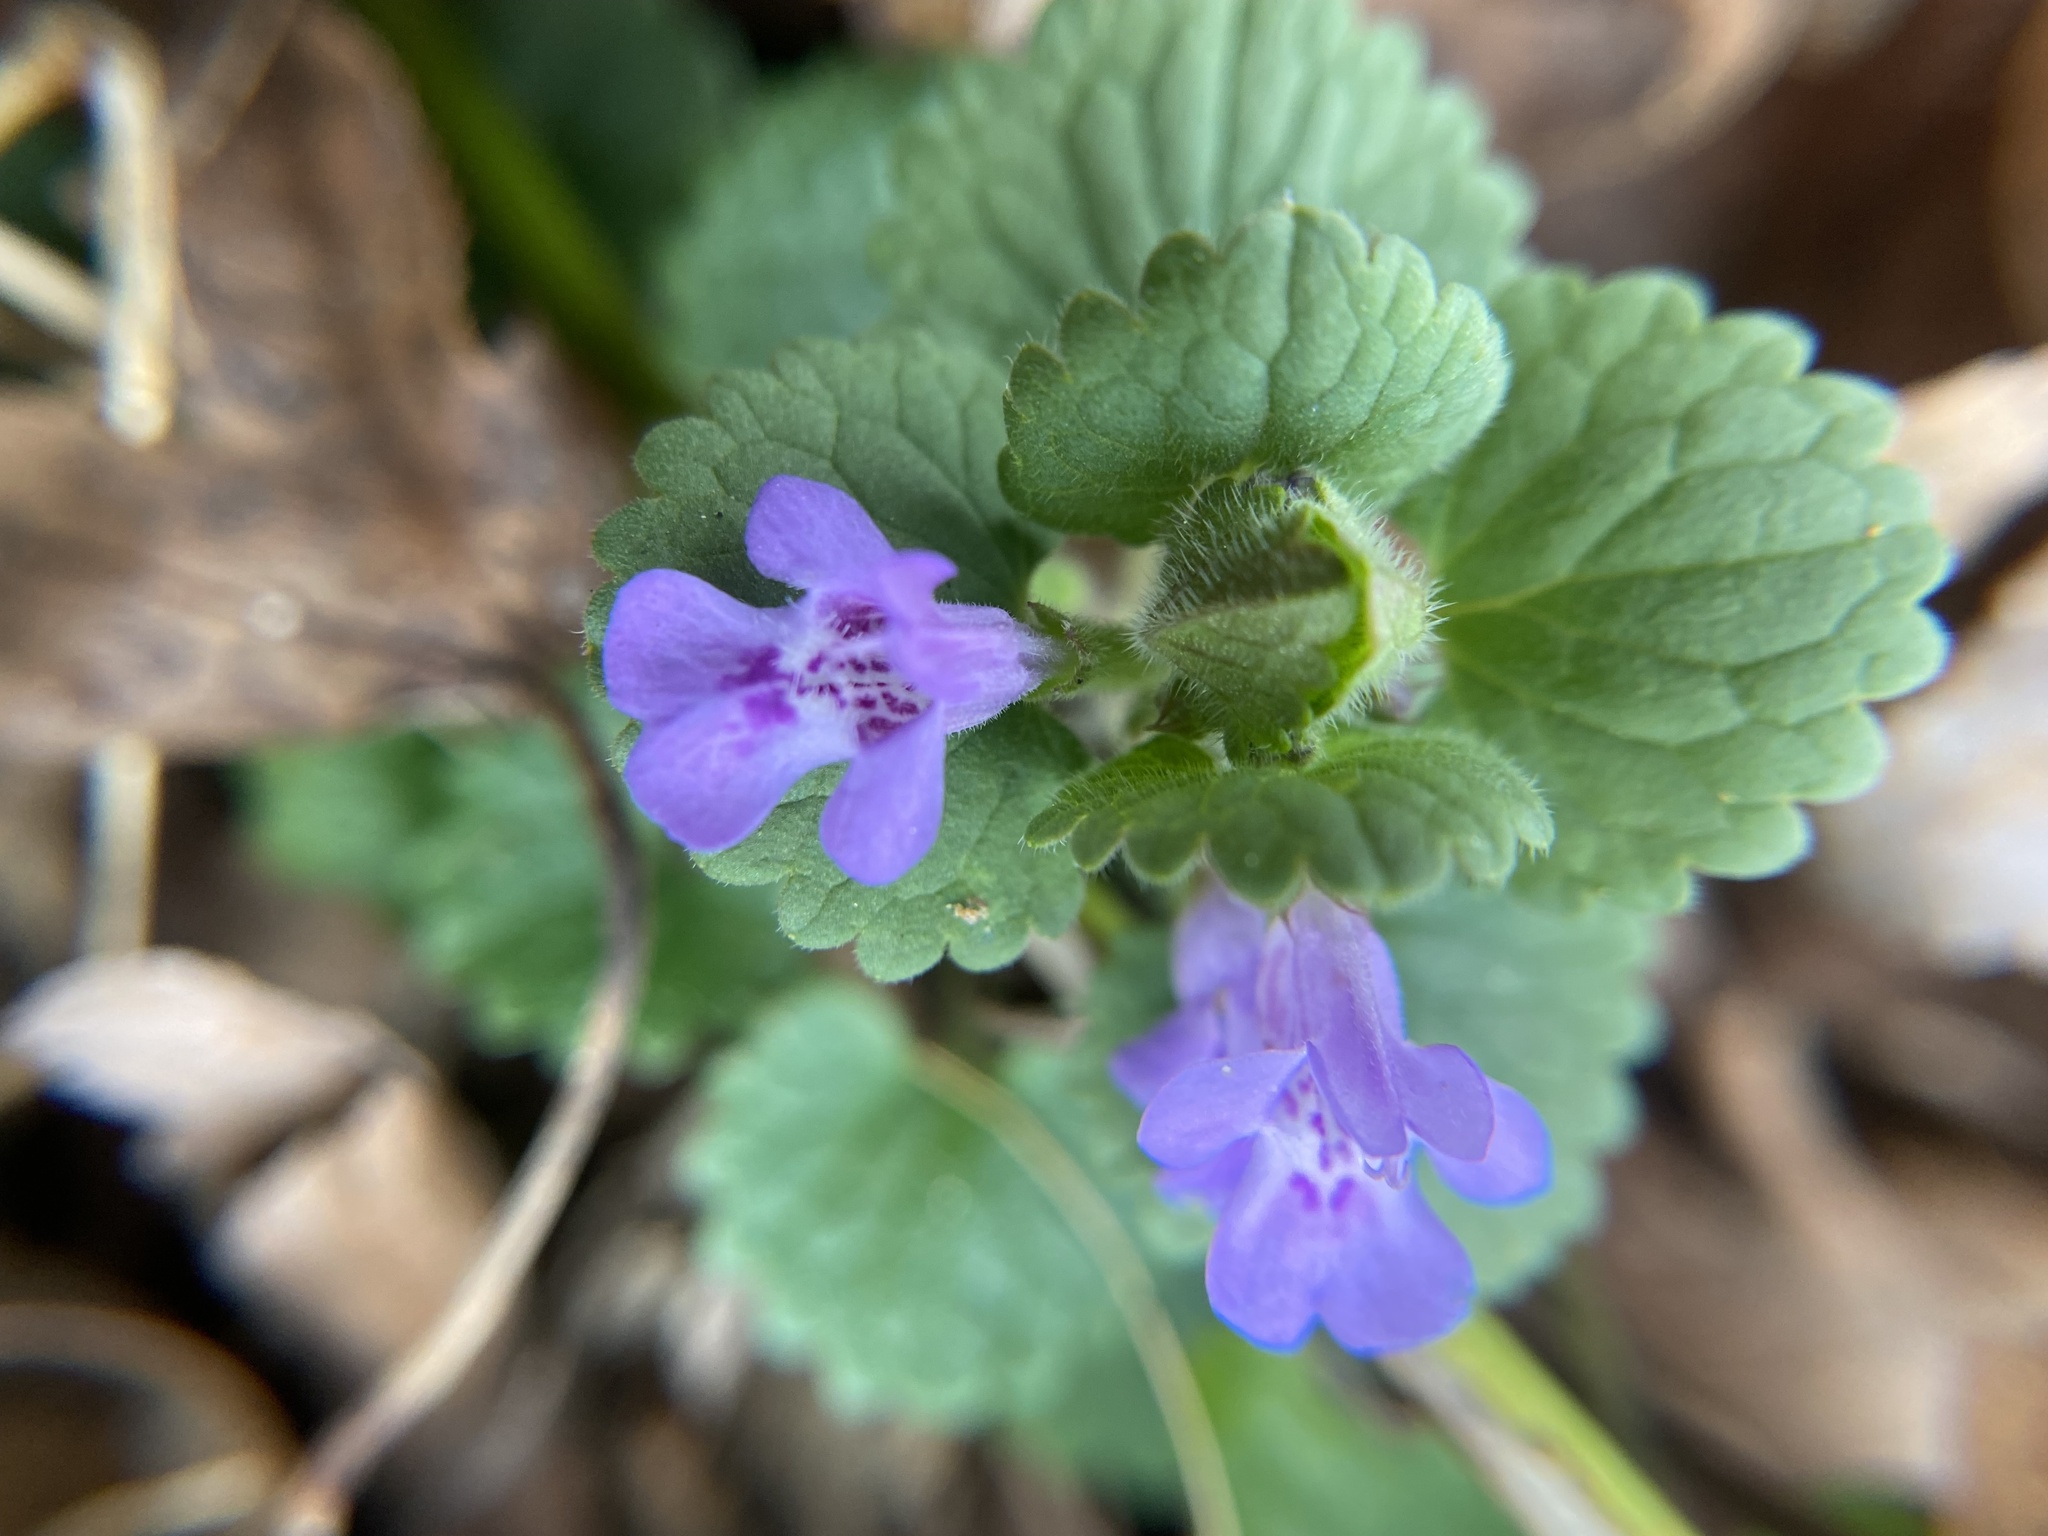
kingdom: Plantae
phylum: Tracheophyta
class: Magnoliopsida
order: Lamiales
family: Lamiaceae
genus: Glechoma
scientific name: Glechoma hederacea
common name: Ground ivy
